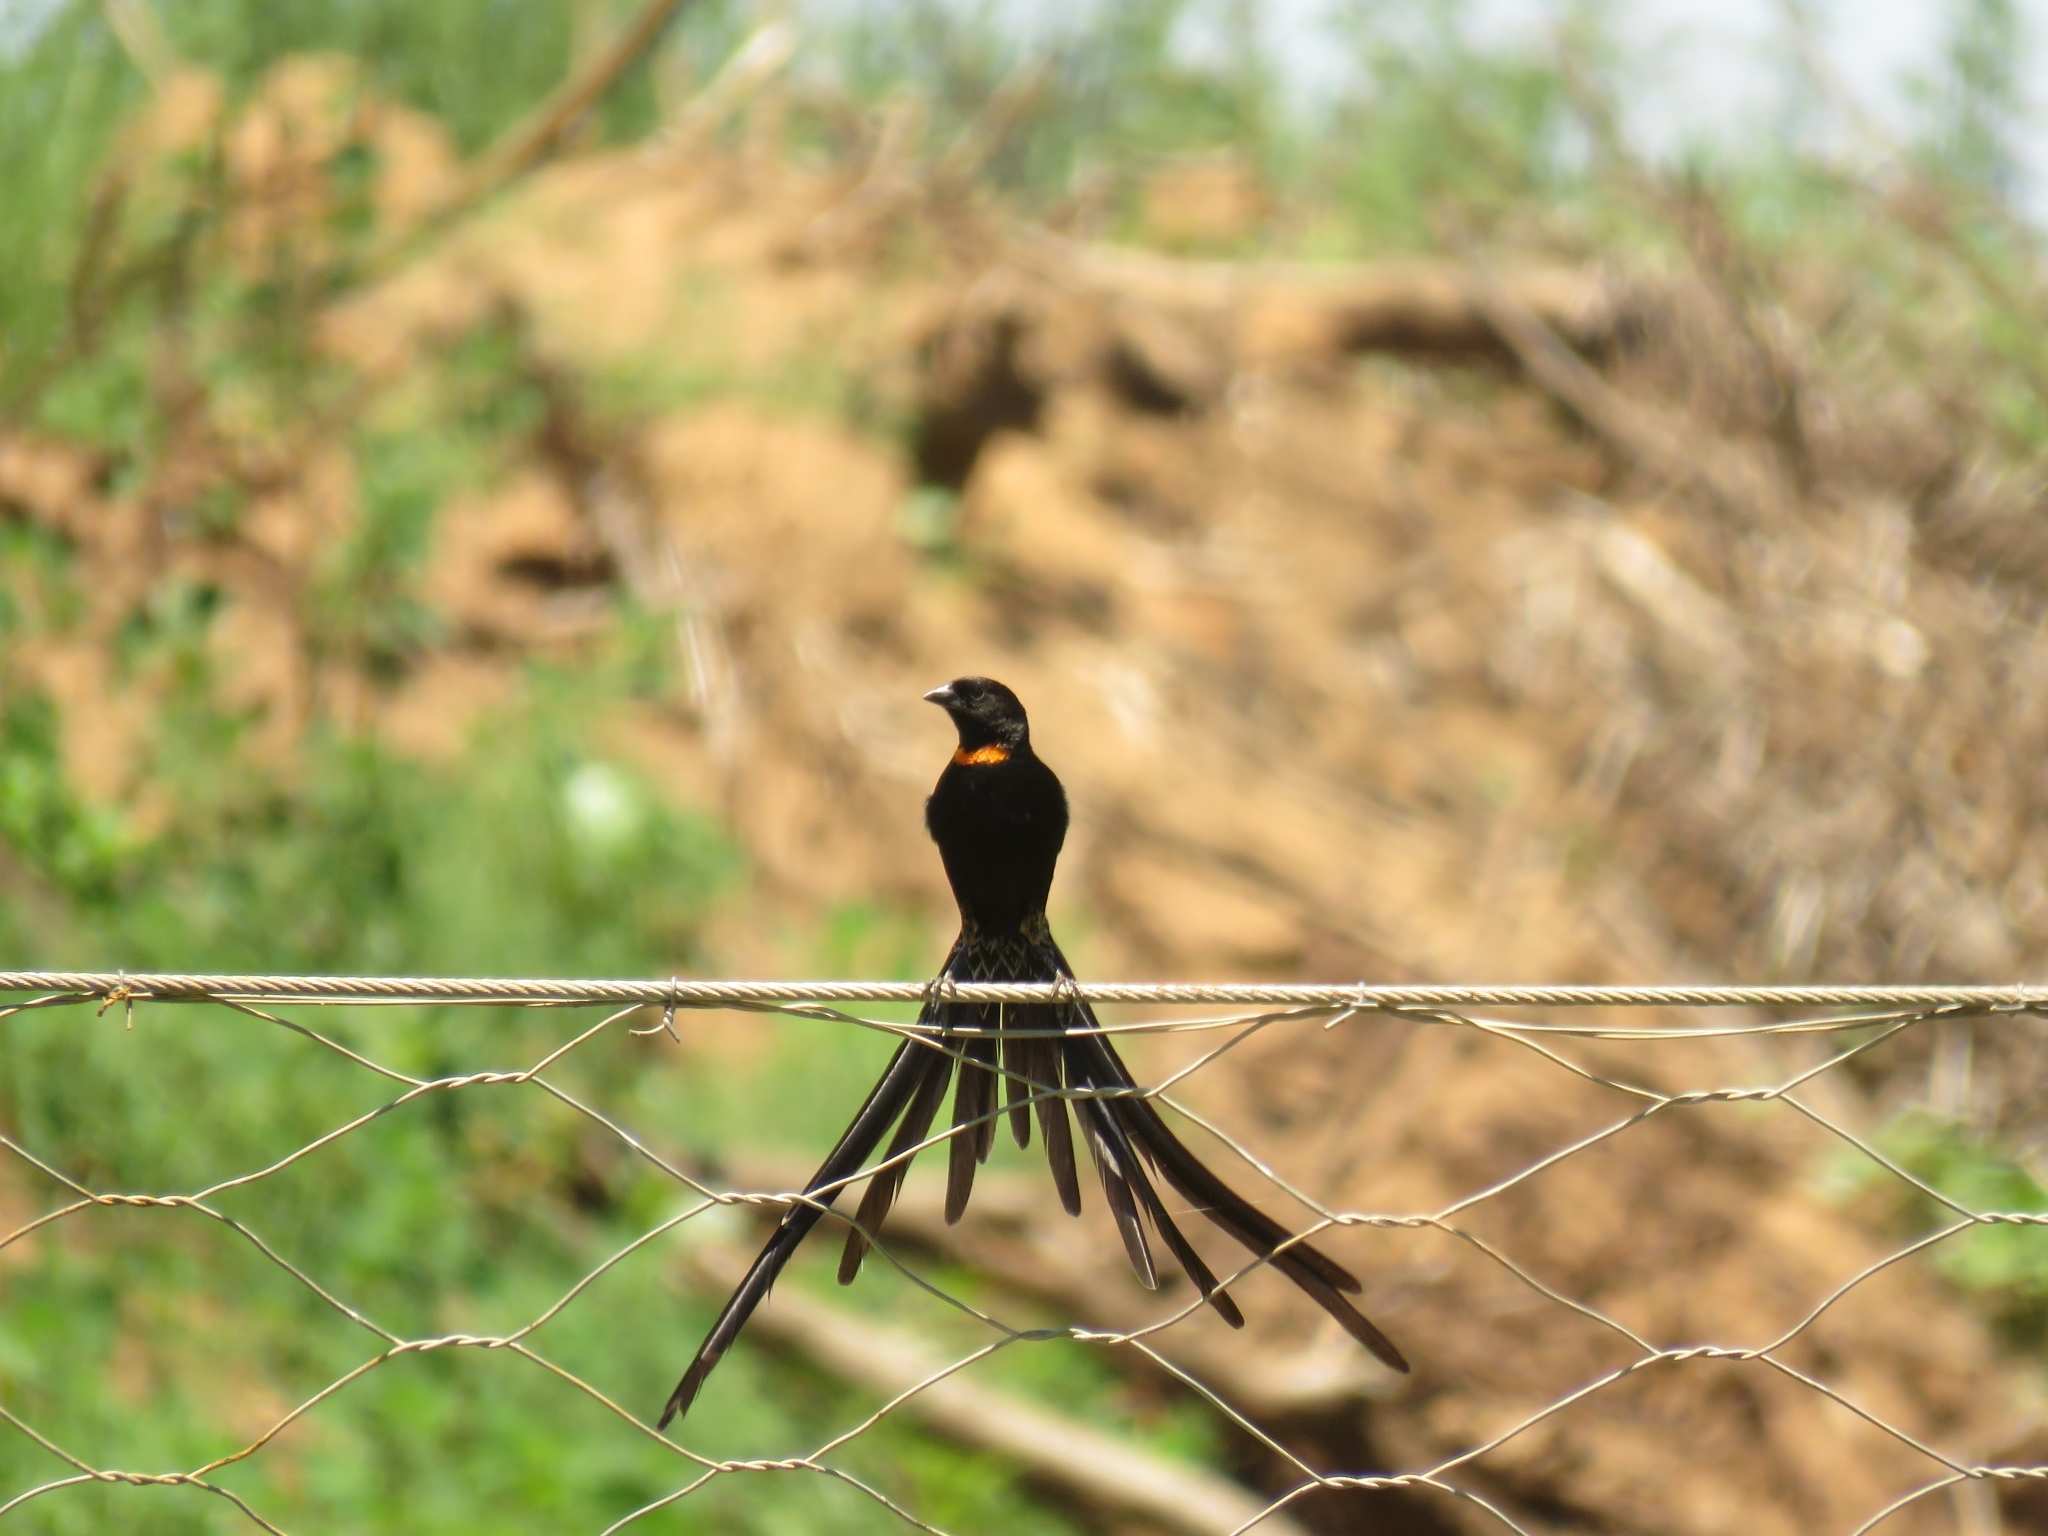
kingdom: Animalia
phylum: Chordata
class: Aves
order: Passeriformes
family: Ploceidae
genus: Euplectes
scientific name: Euplectes ardens
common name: Red-collared widowbird
